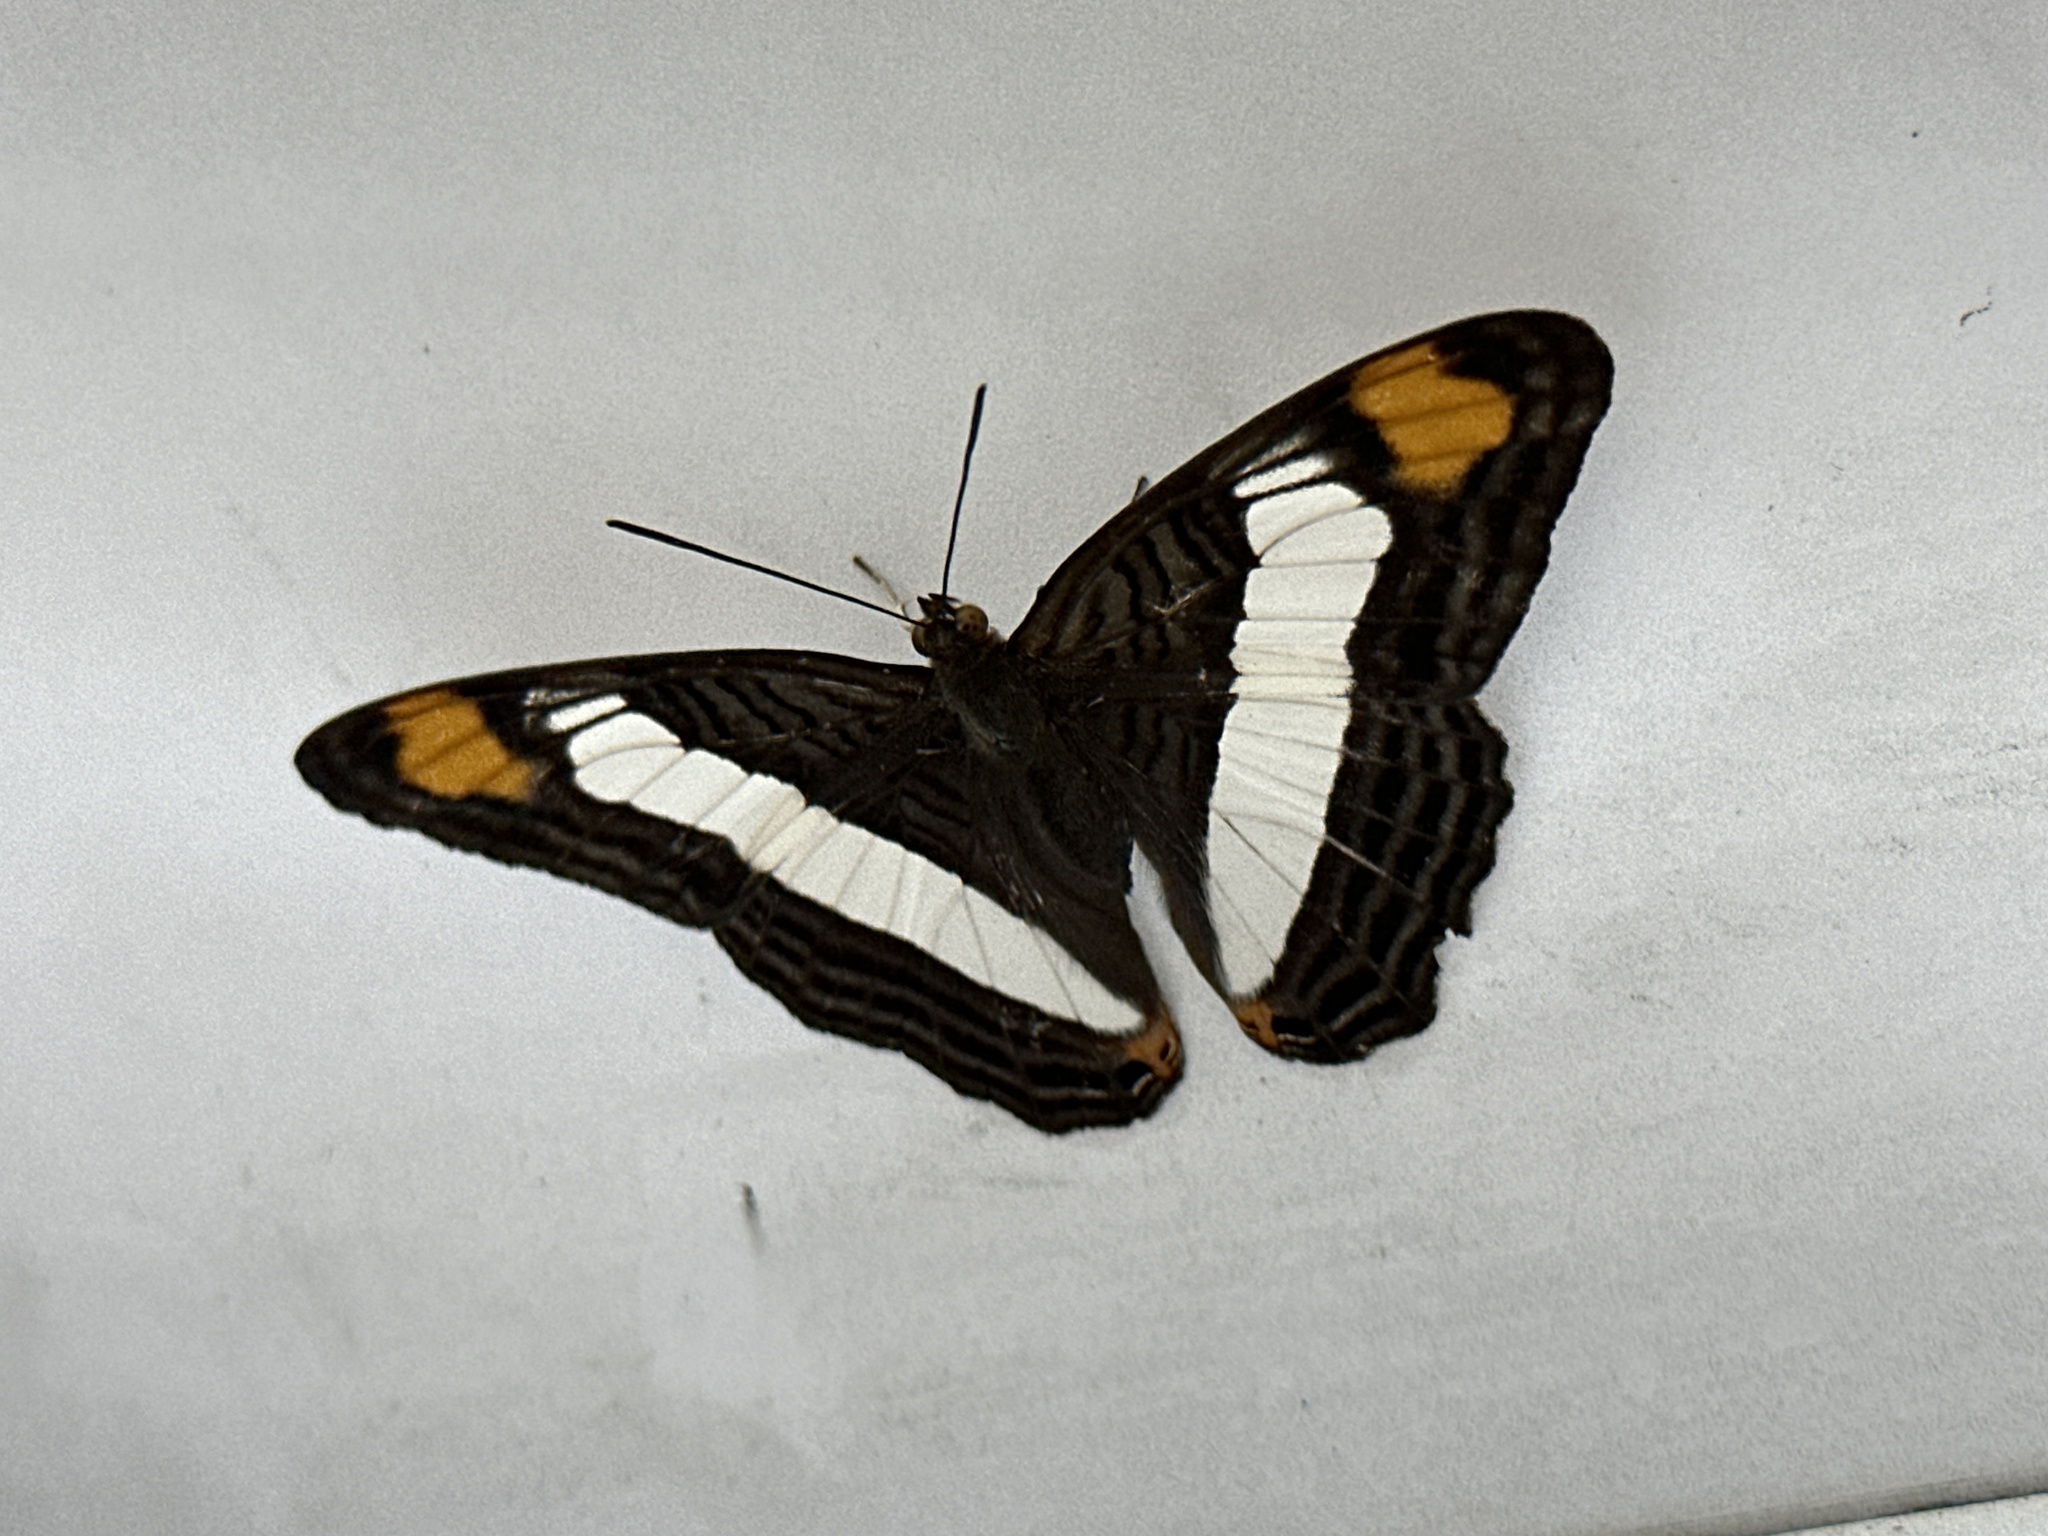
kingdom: Animalia
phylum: Arthropoda
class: Insecta
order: Lepidoptera
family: Nymphalidae
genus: Limenitis
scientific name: Limenitis Adelpha basiloides
